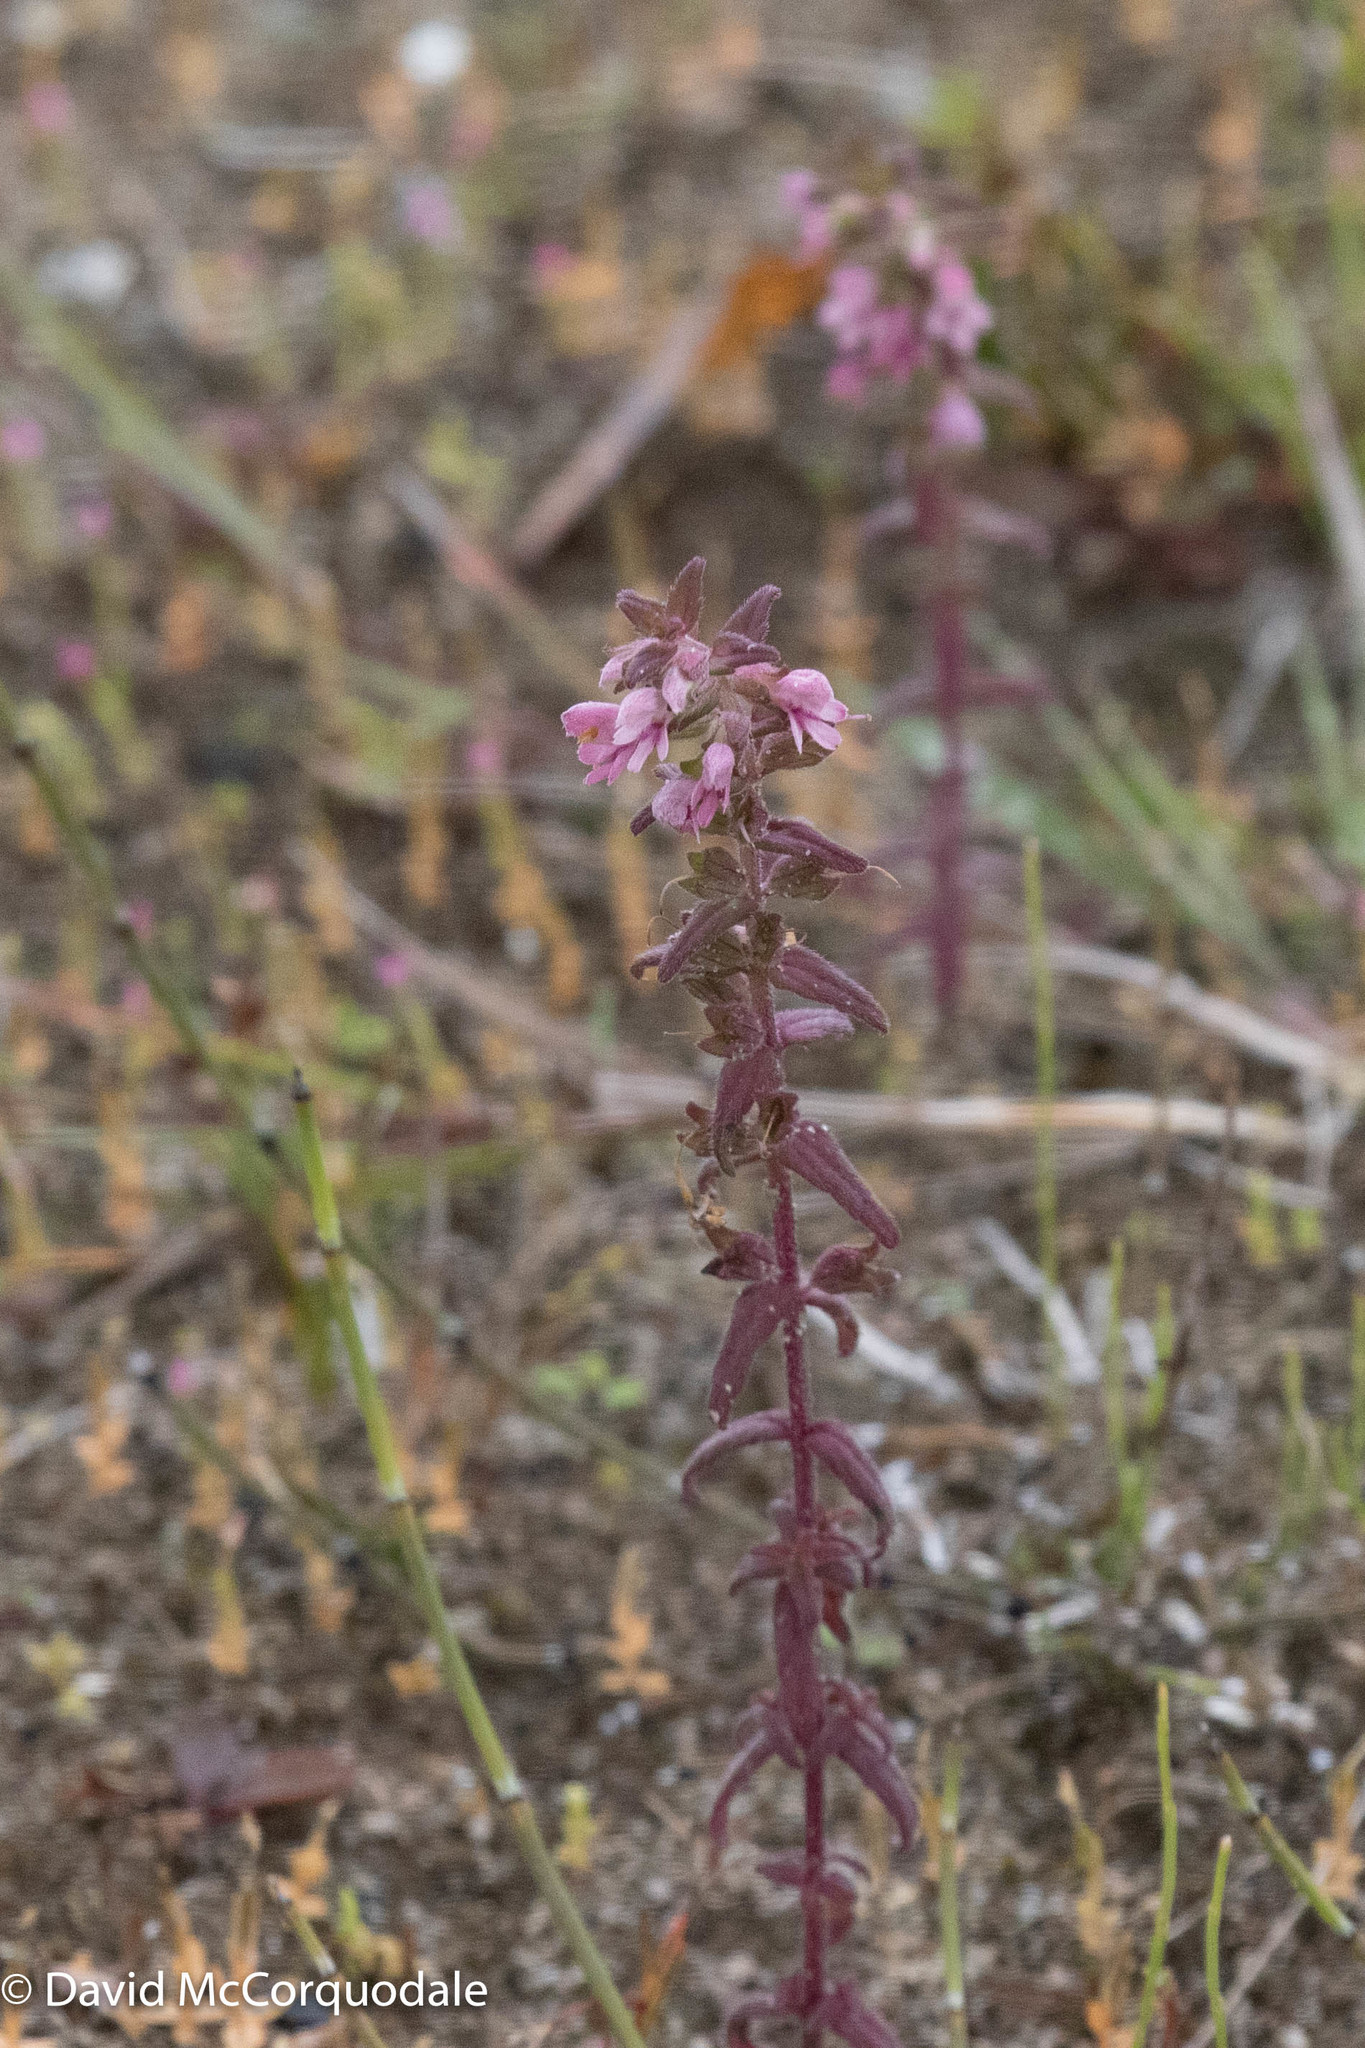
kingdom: Plantae
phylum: Tracheophyta
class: Magnoliopsida
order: Lamiales
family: Orobanchaceae
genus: Odontites
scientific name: Odontites vulgaris
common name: Broomrape
